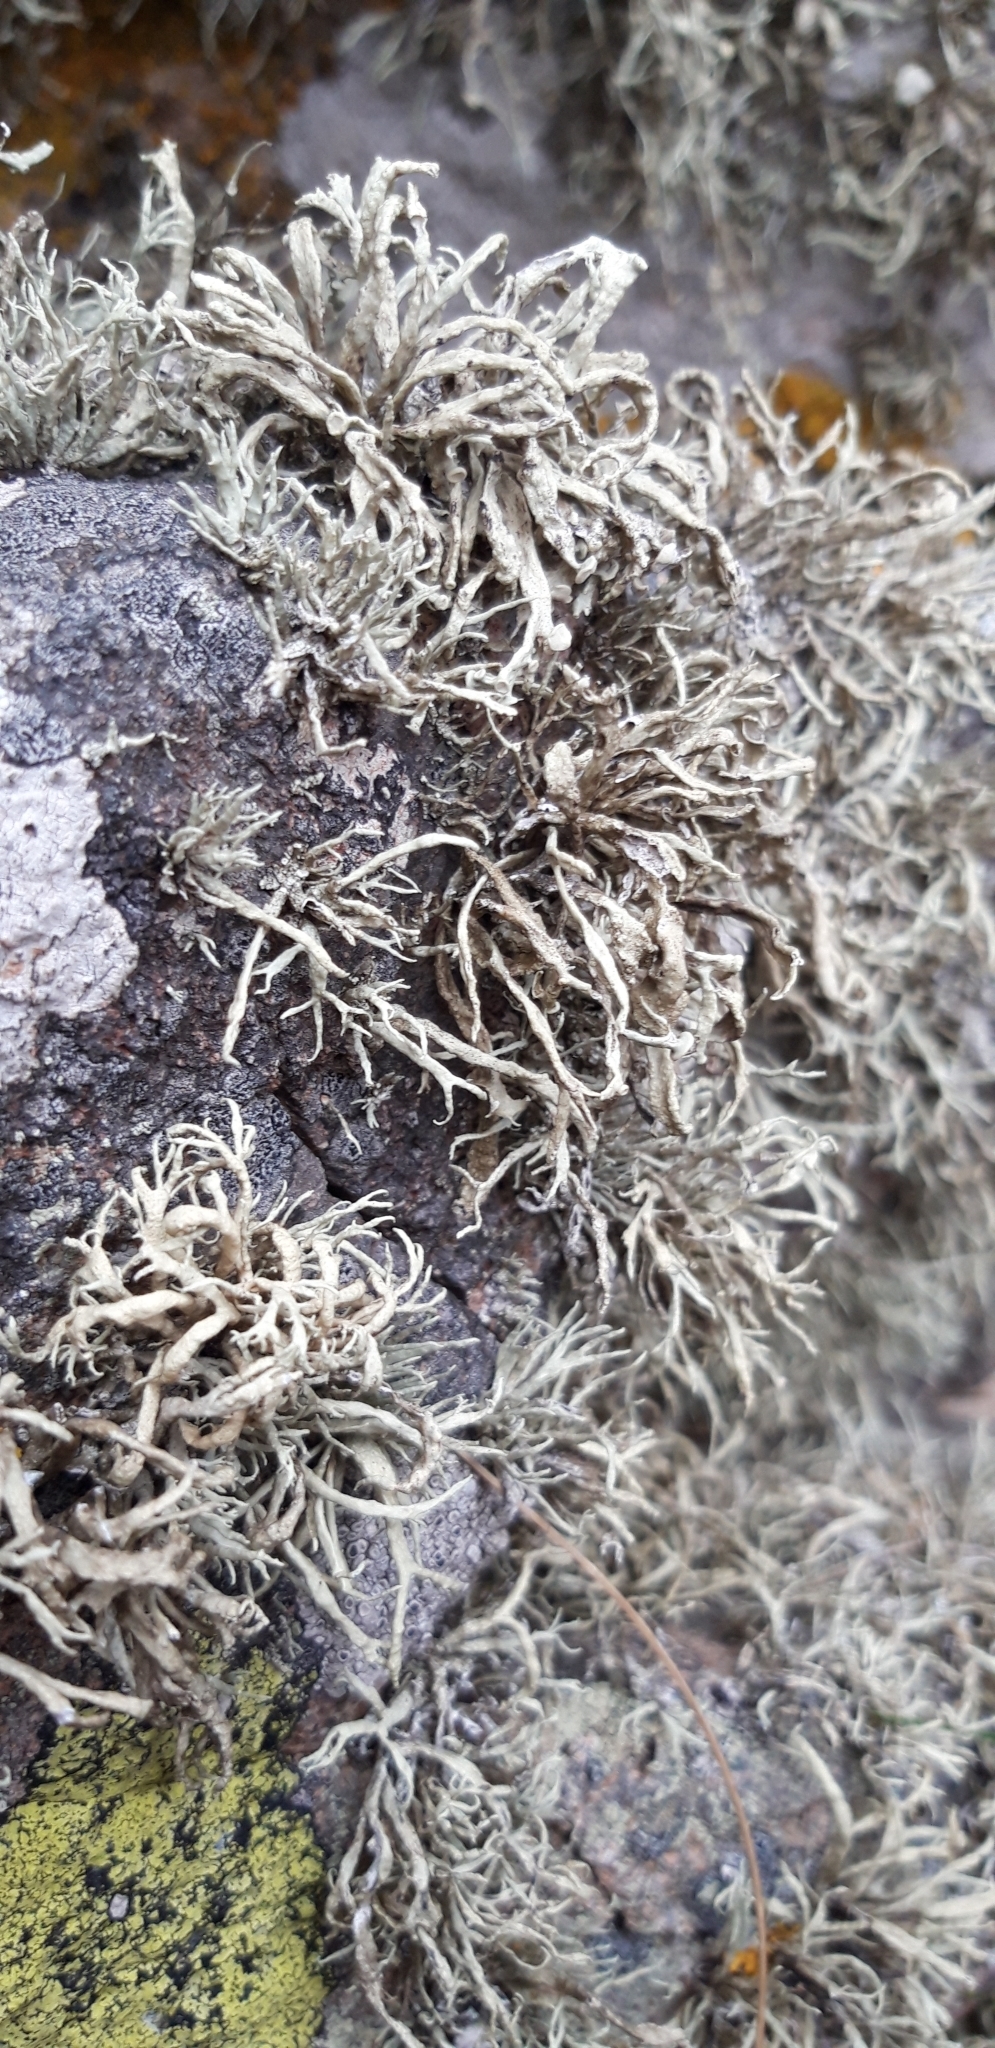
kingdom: Fungi
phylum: Ascomycota
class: Lecanoromycetes
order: Lecanorales
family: Ramalinaceae
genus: Ramalina
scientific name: Ramalina siliquosa
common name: Sea ivory
